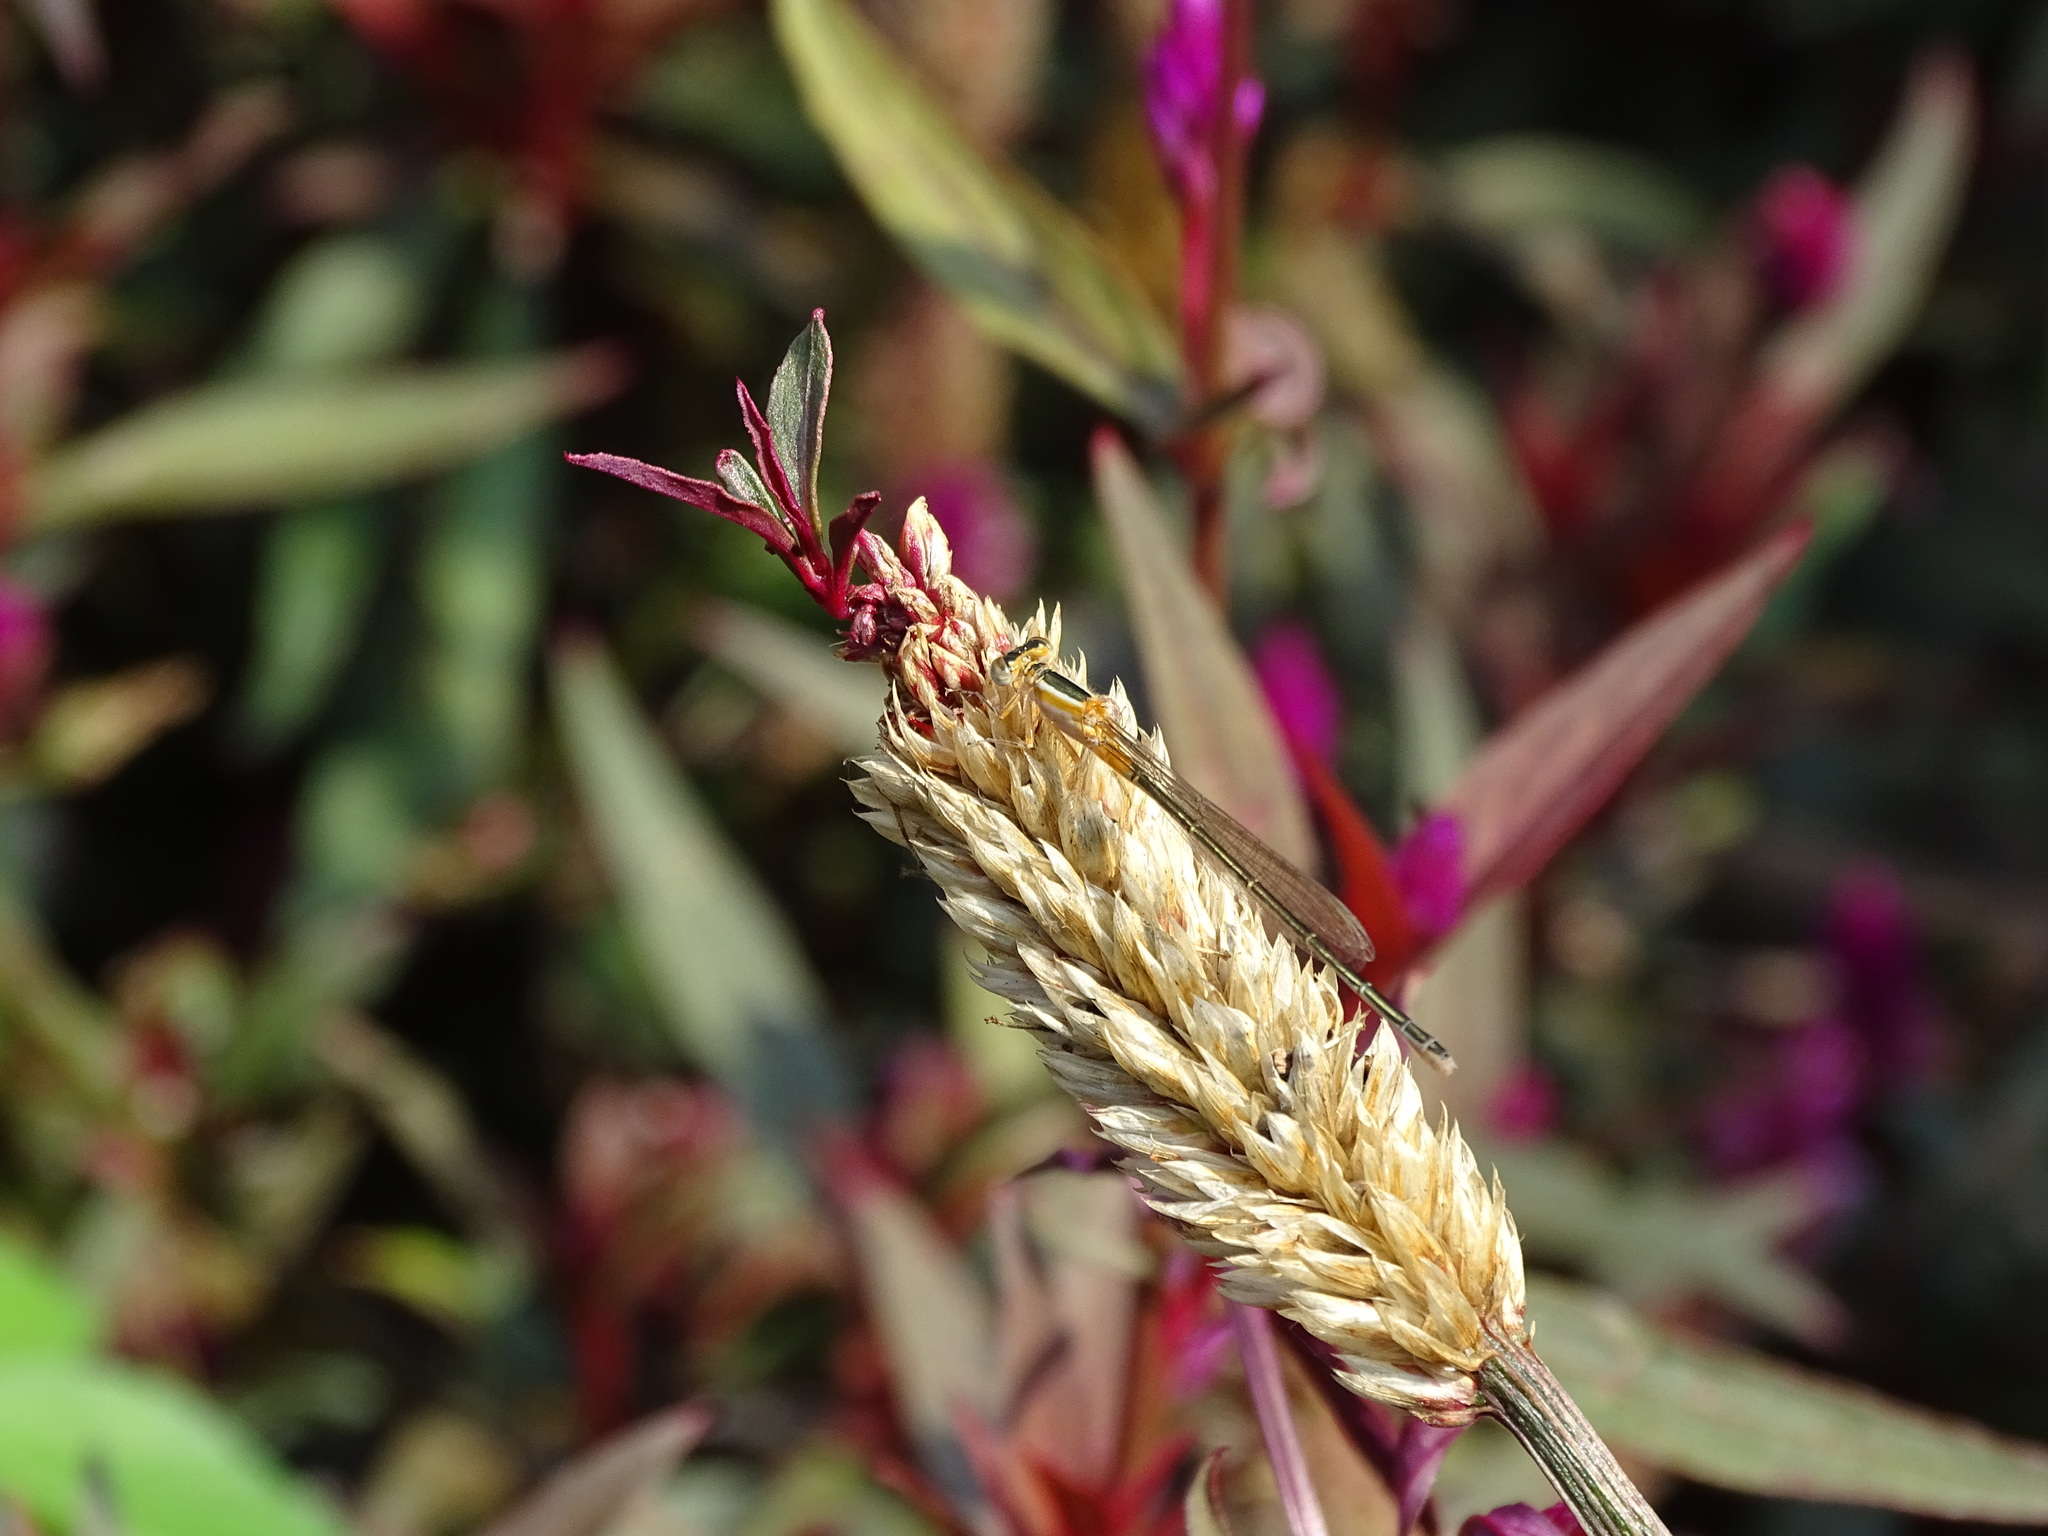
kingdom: Animalia
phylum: Arthropoda
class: Insecta
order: Odonata
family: Coenagrionidae
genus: Ischnura
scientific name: Ischnura senegalensis
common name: Tropical bluetail
